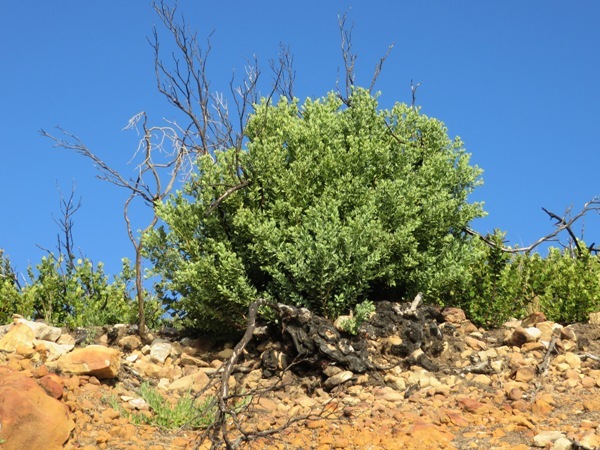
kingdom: Plantae
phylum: Tracheophyta
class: Magnoliopsida
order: Santalales
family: Santalaceae
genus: Osyris
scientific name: Osyris compressa
